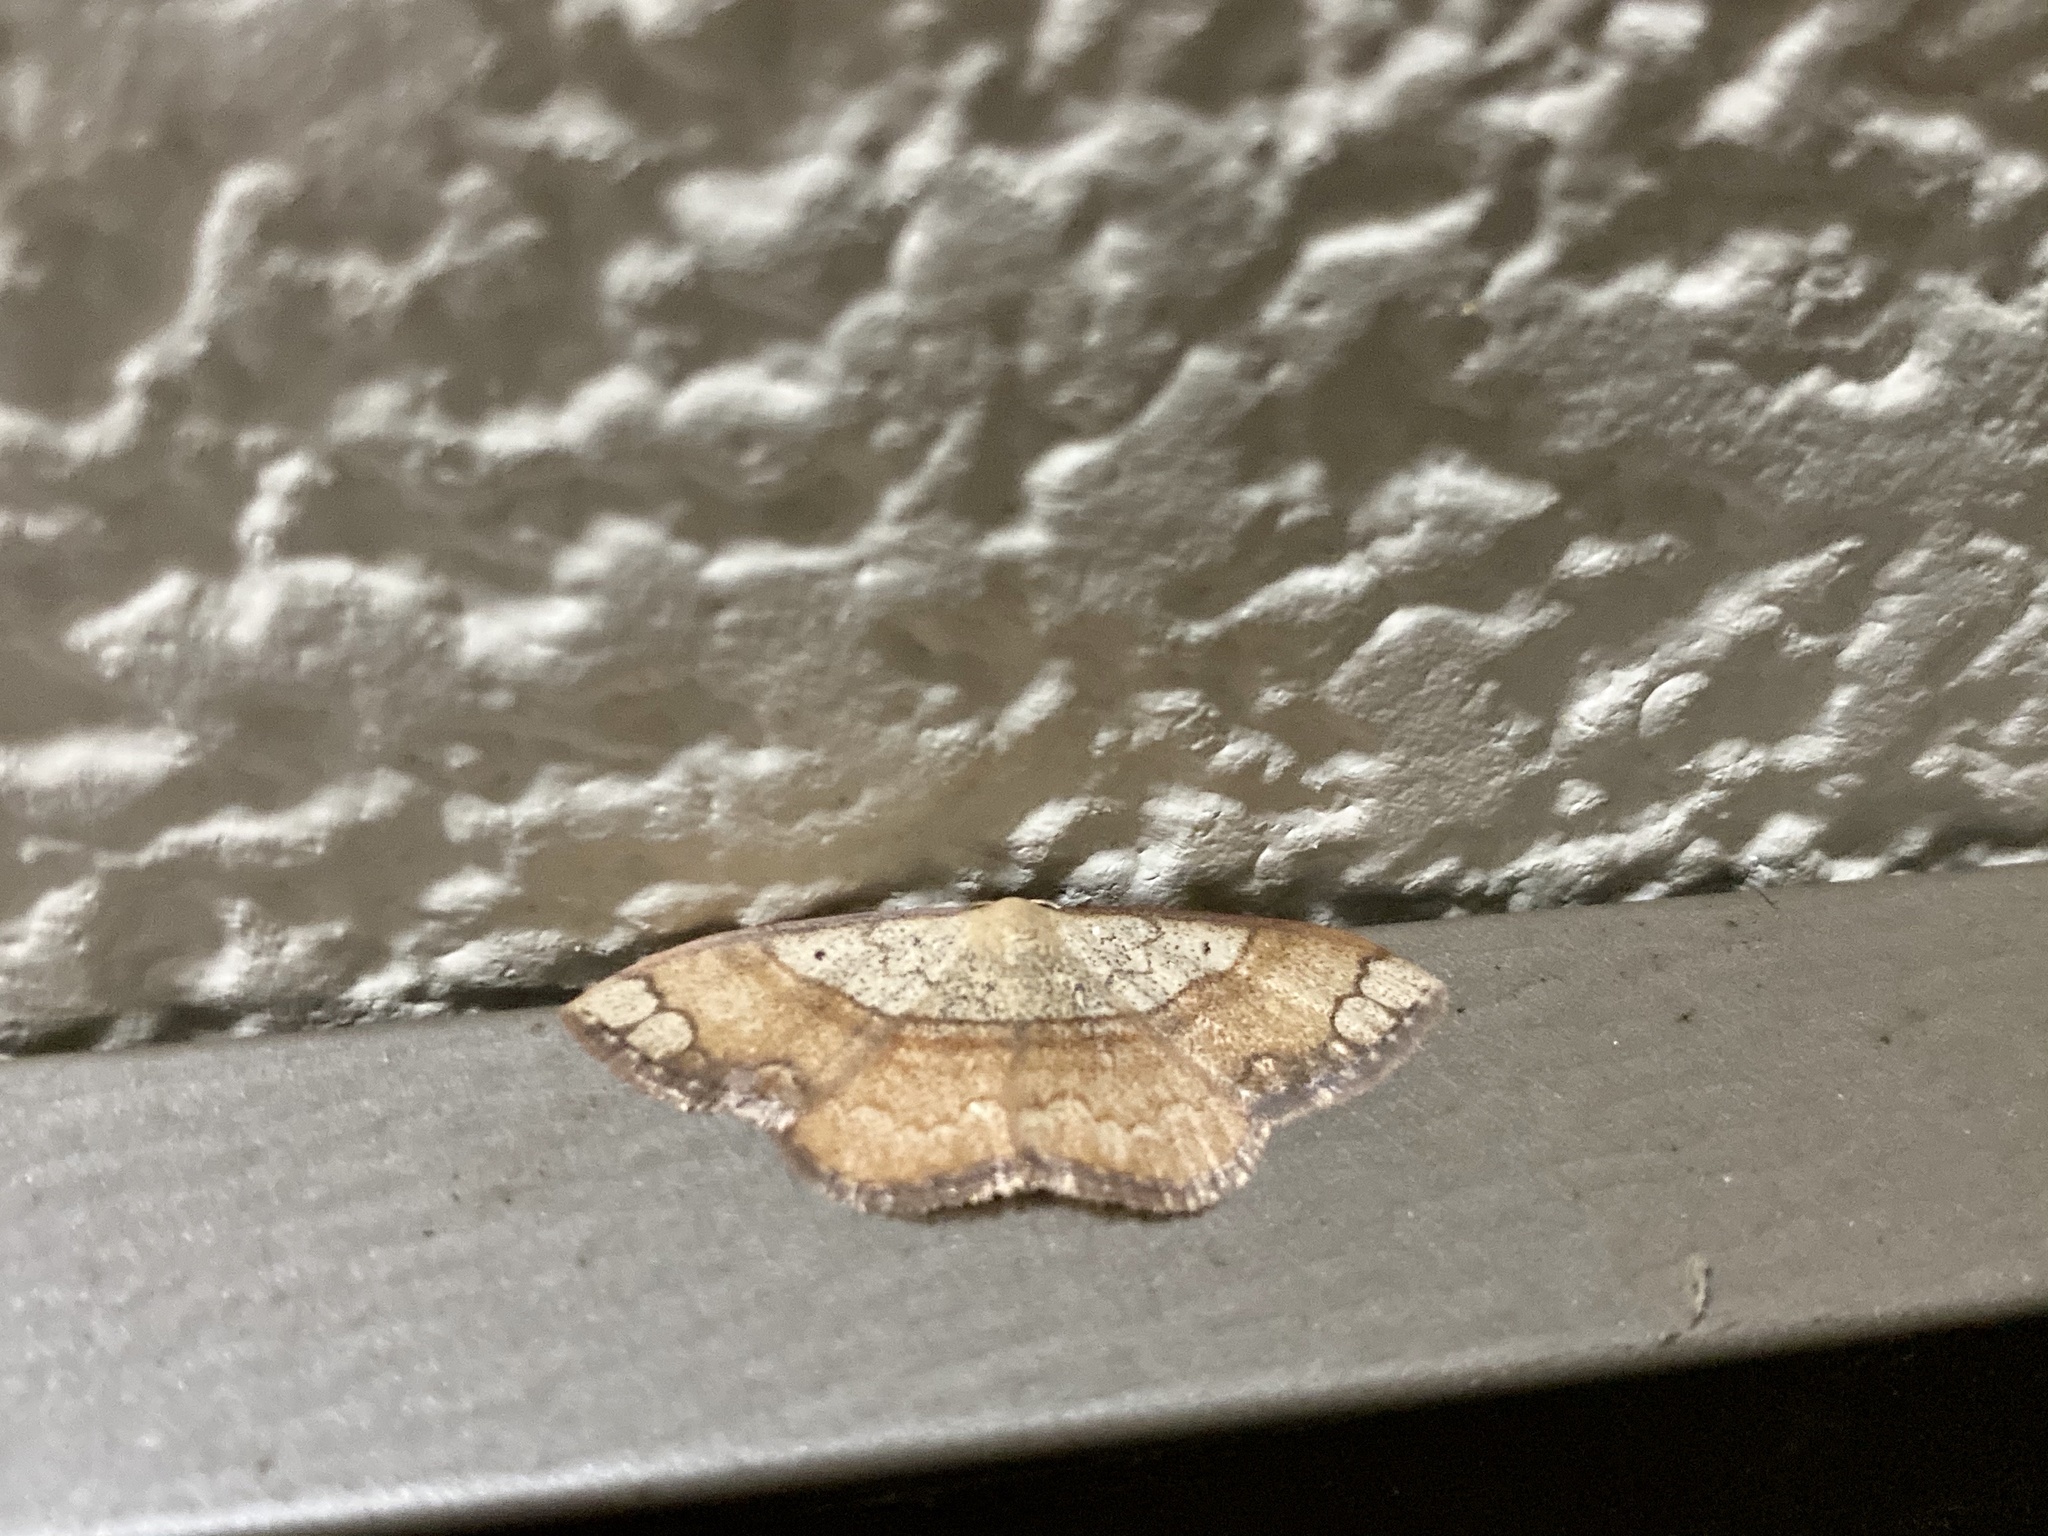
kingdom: Animalia
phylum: Arthropoda
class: Insecta
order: Lepidoptera
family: Geometridae
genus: Pylargosceles
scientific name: Pylargosceles steganioides
